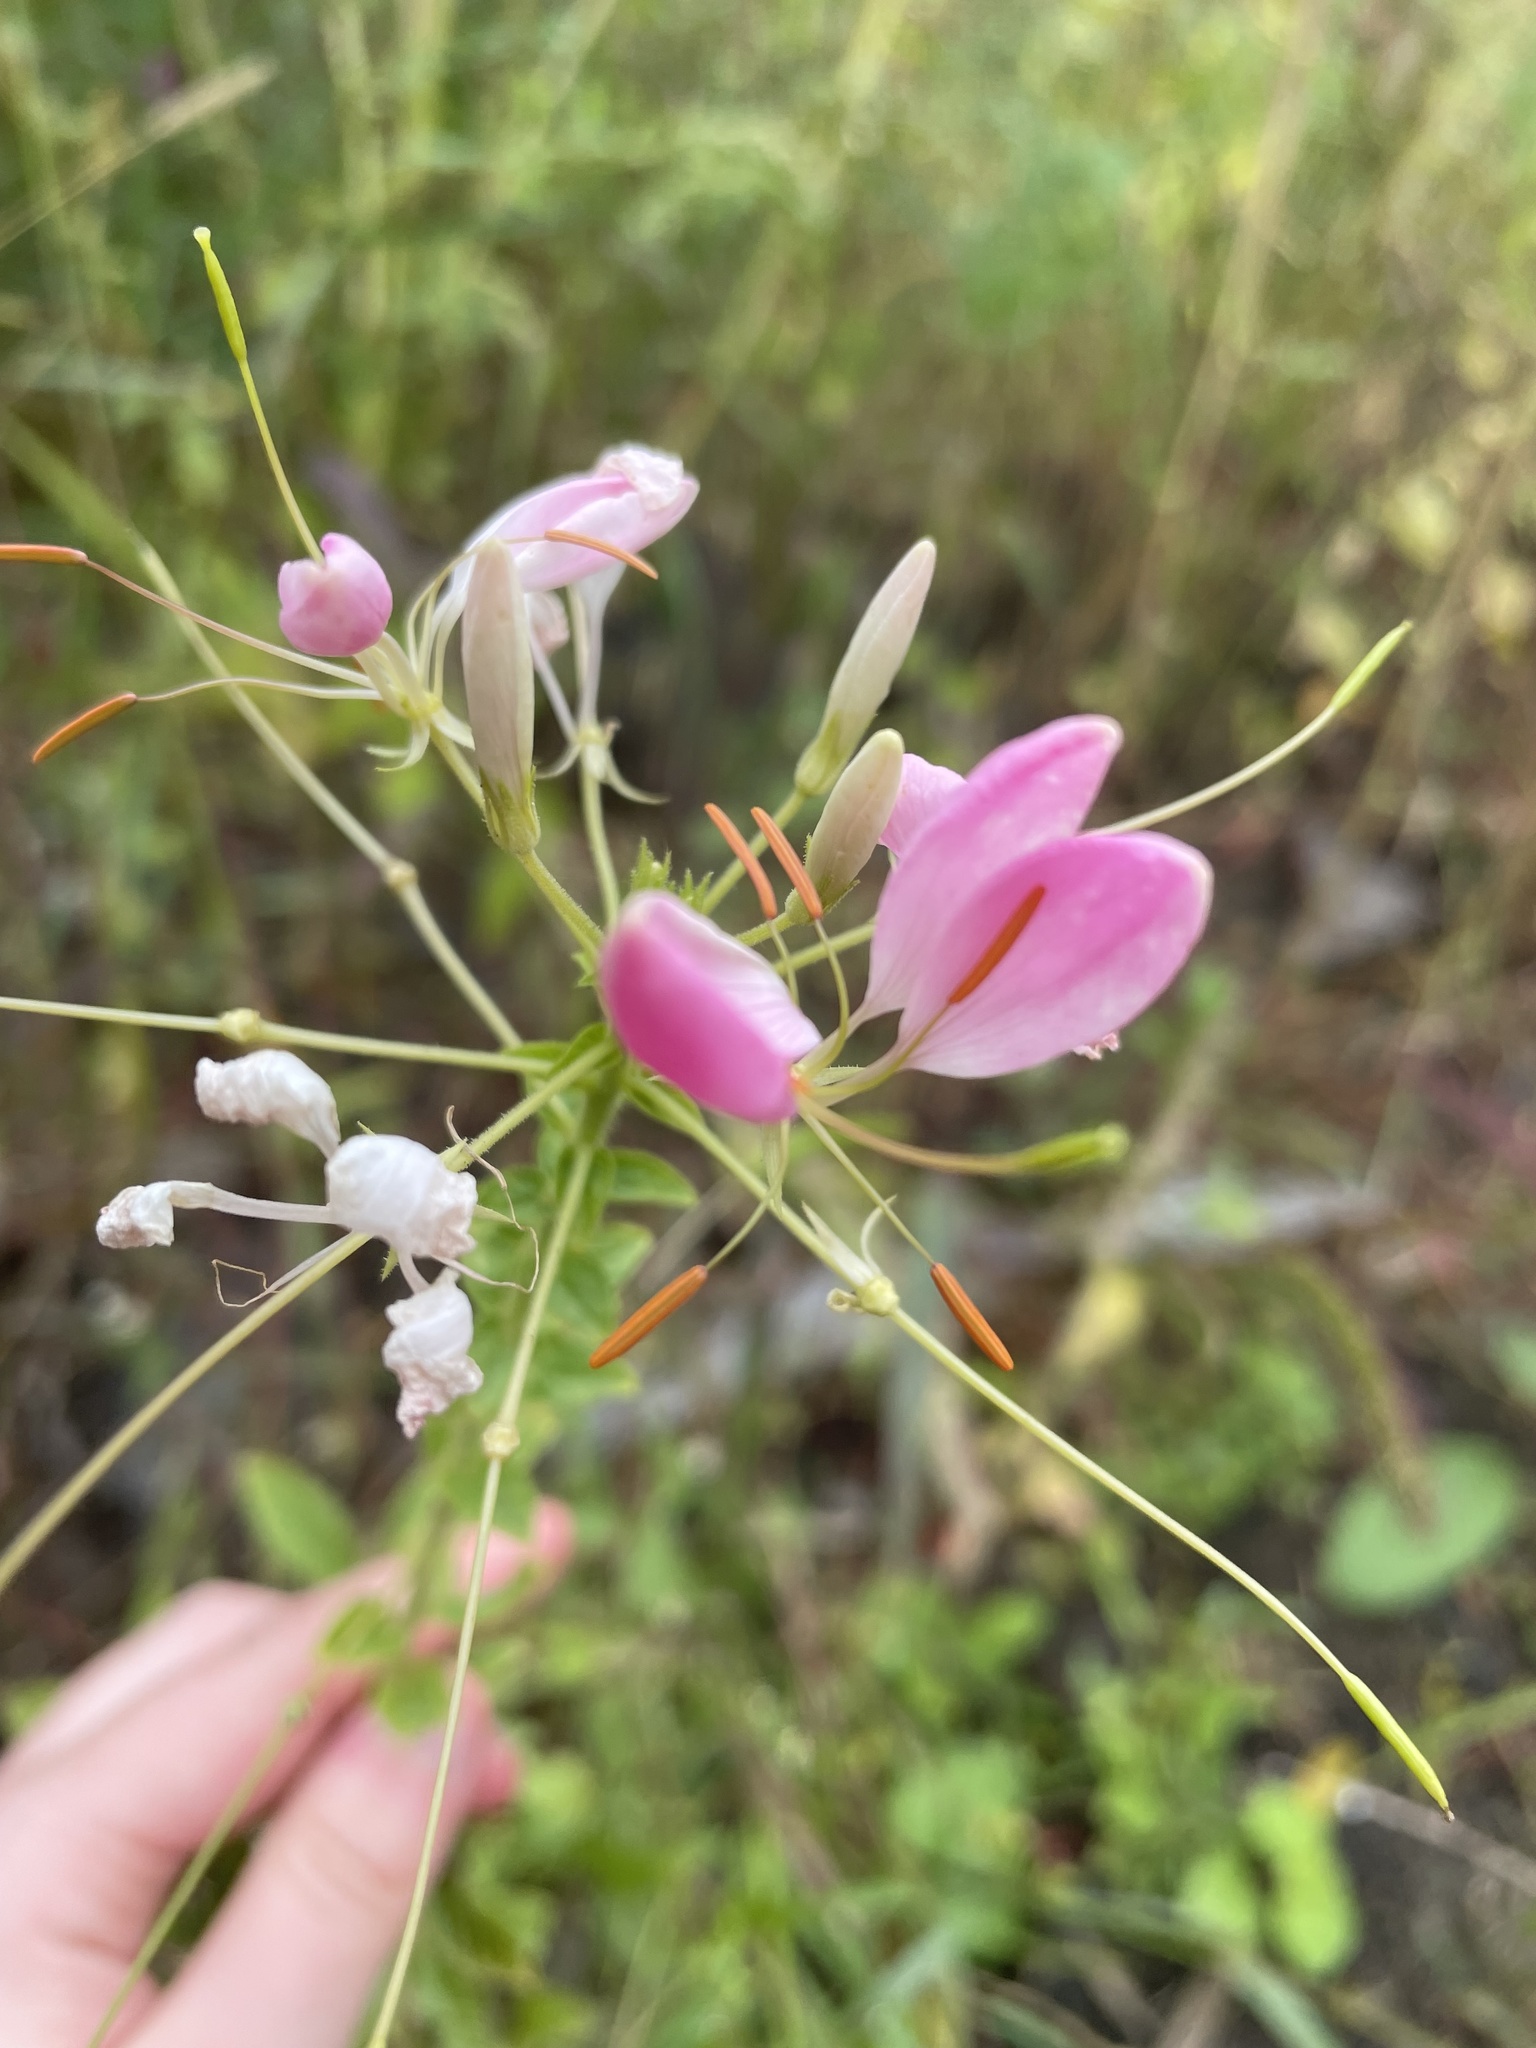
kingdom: Plantae
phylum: Tracheophyta
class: Magnoliopsida
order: Brassicales
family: Cleomaceae
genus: Tarenaya
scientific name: Tarenaya houtteana
